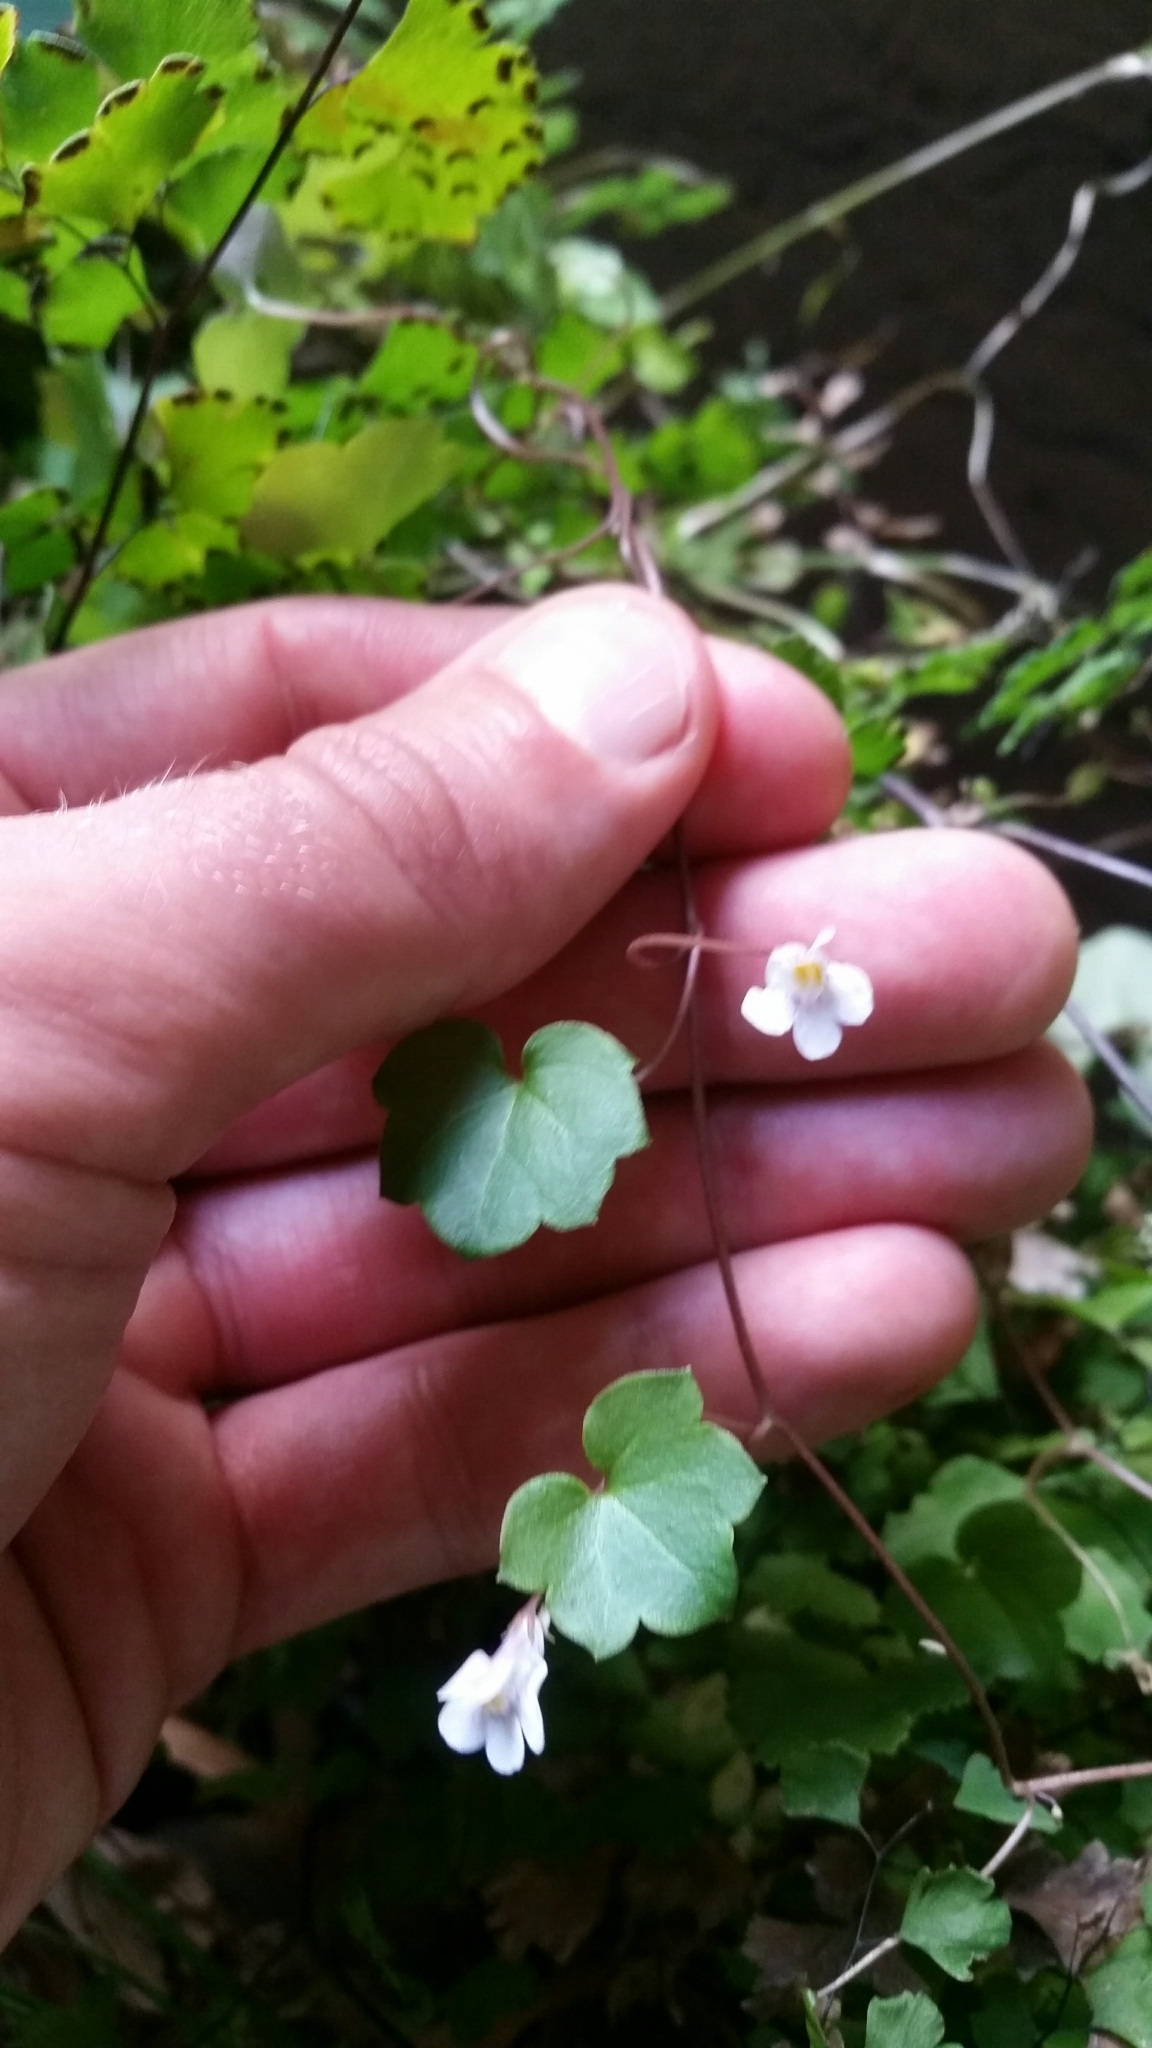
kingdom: Plantae
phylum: Tracheophyta
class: Magnoliopsida
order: Lamiales
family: Plantaginaceae
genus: Cymbalaria
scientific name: Cymbalaria muralis
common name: Ivy-leaved toadflax
